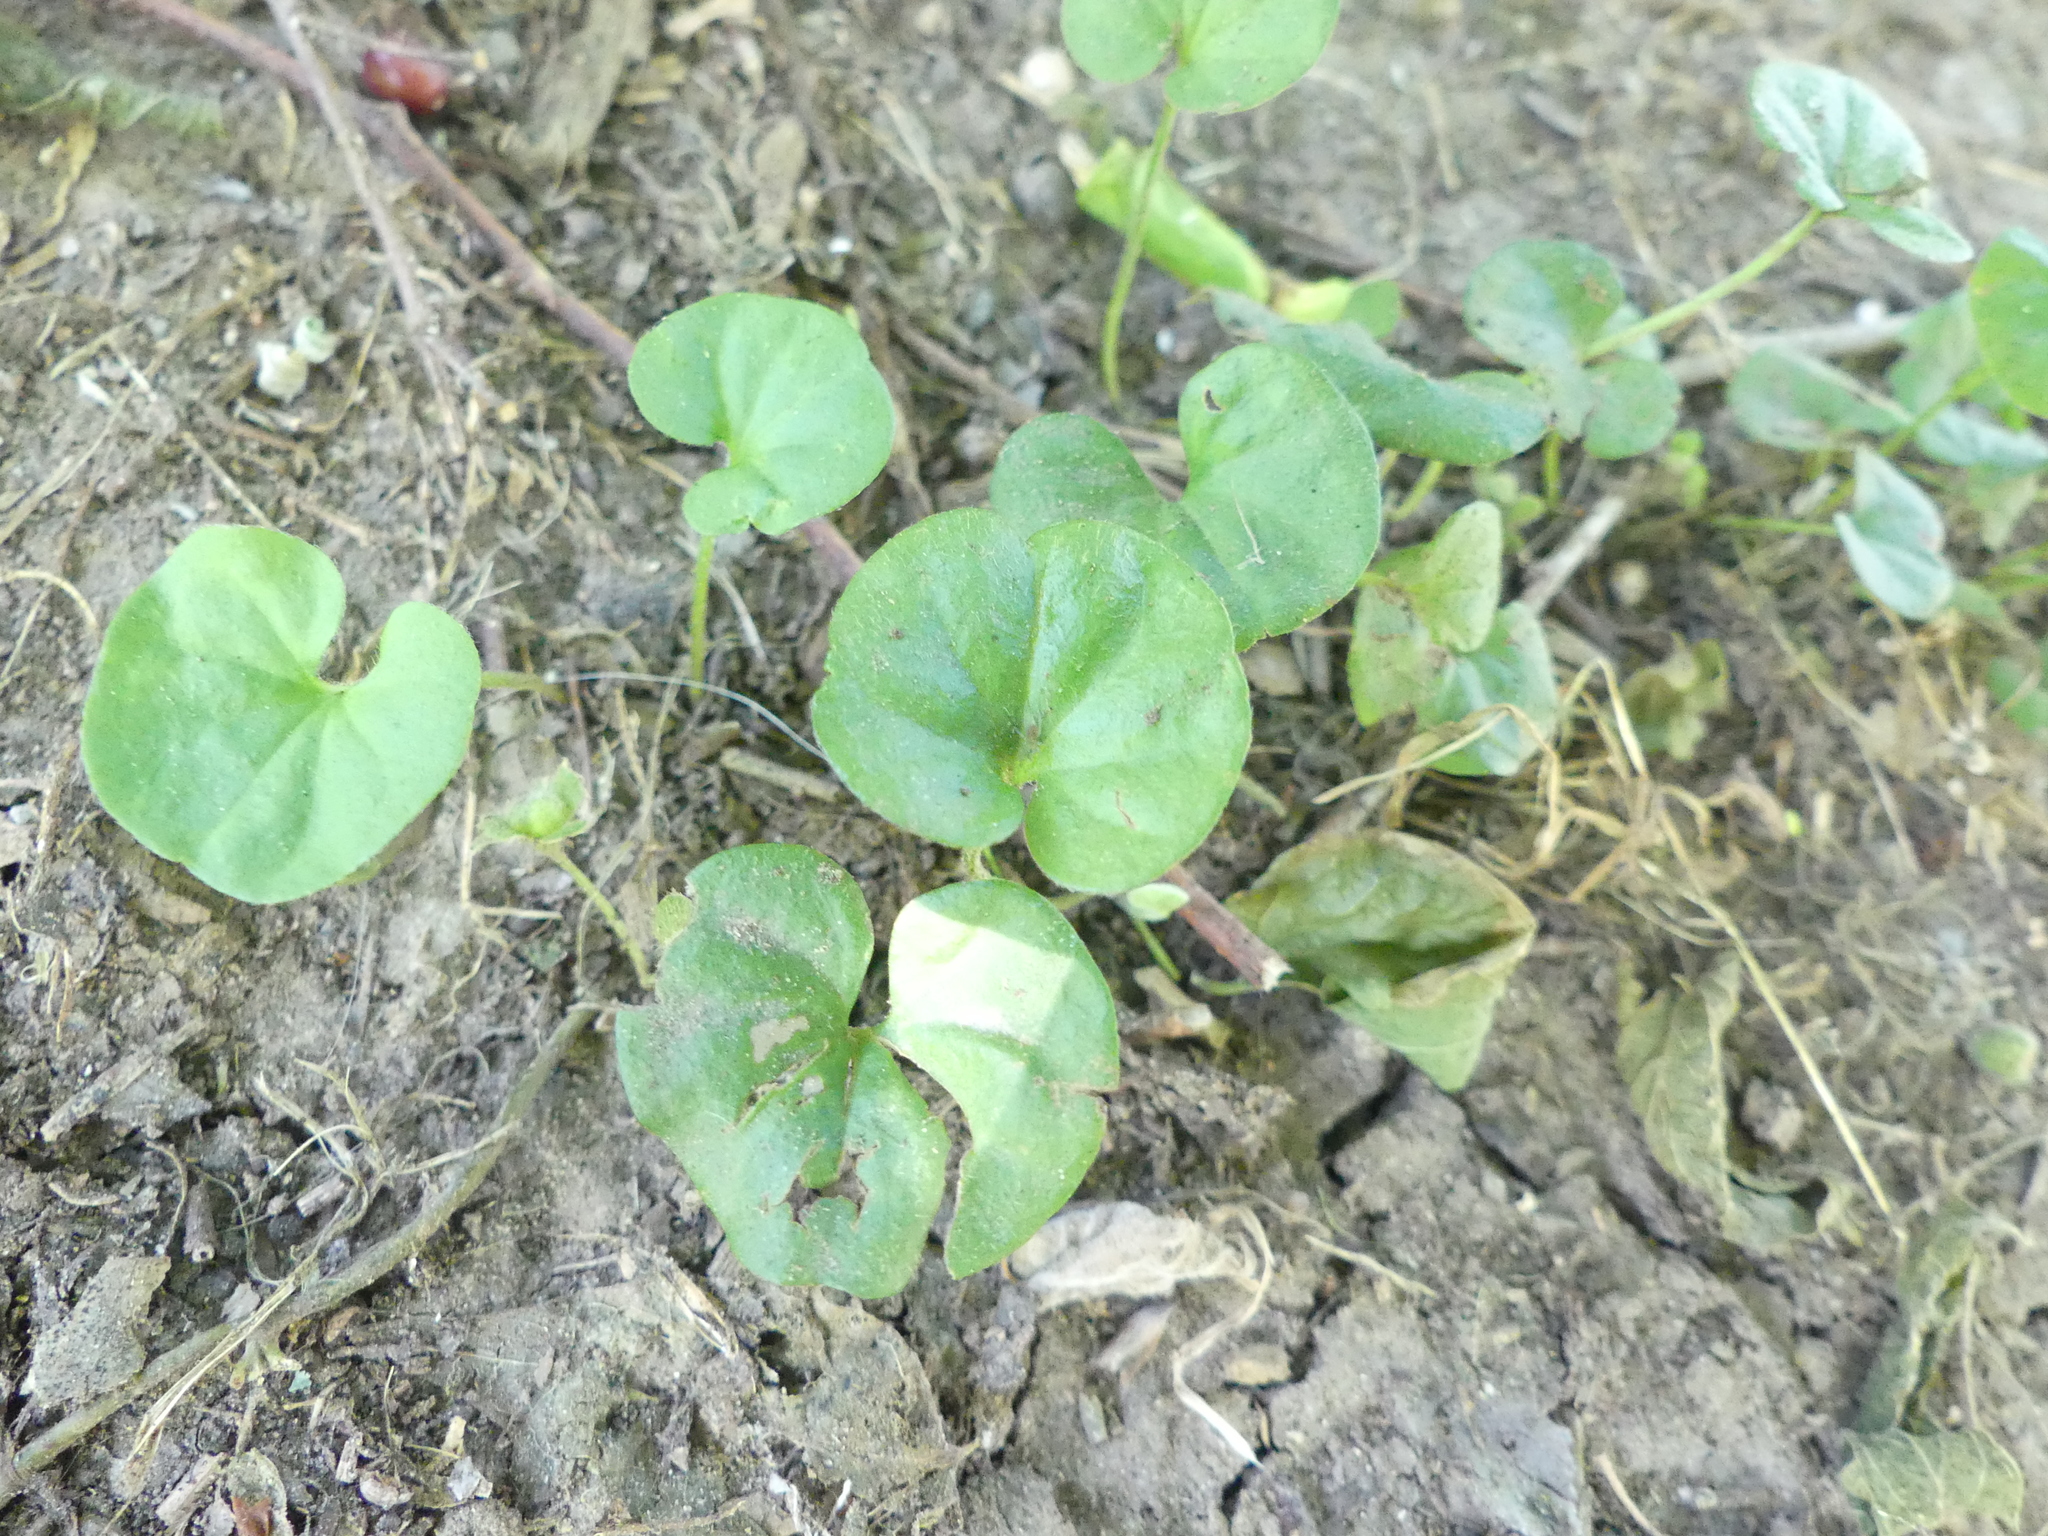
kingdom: Plantae
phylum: Tracheophyta
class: Magnoliopsida
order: Solanales
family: Convolvulaceae
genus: Dichondra
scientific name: Dichondra carolinensis
